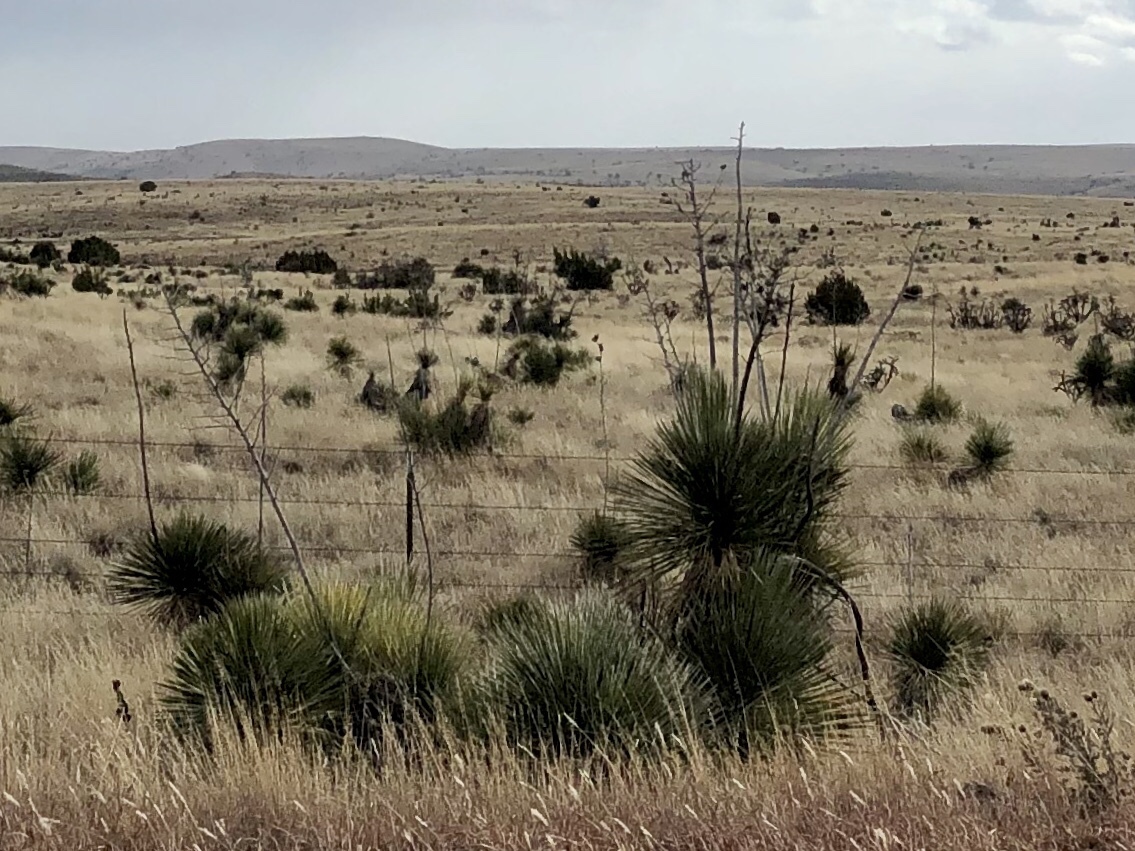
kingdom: Plantae
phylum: Tracheophyta
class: Liliopsida
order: Asparagales
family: Asparagaceae
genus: Yucca
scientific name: Yucca elata
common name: Palmella
